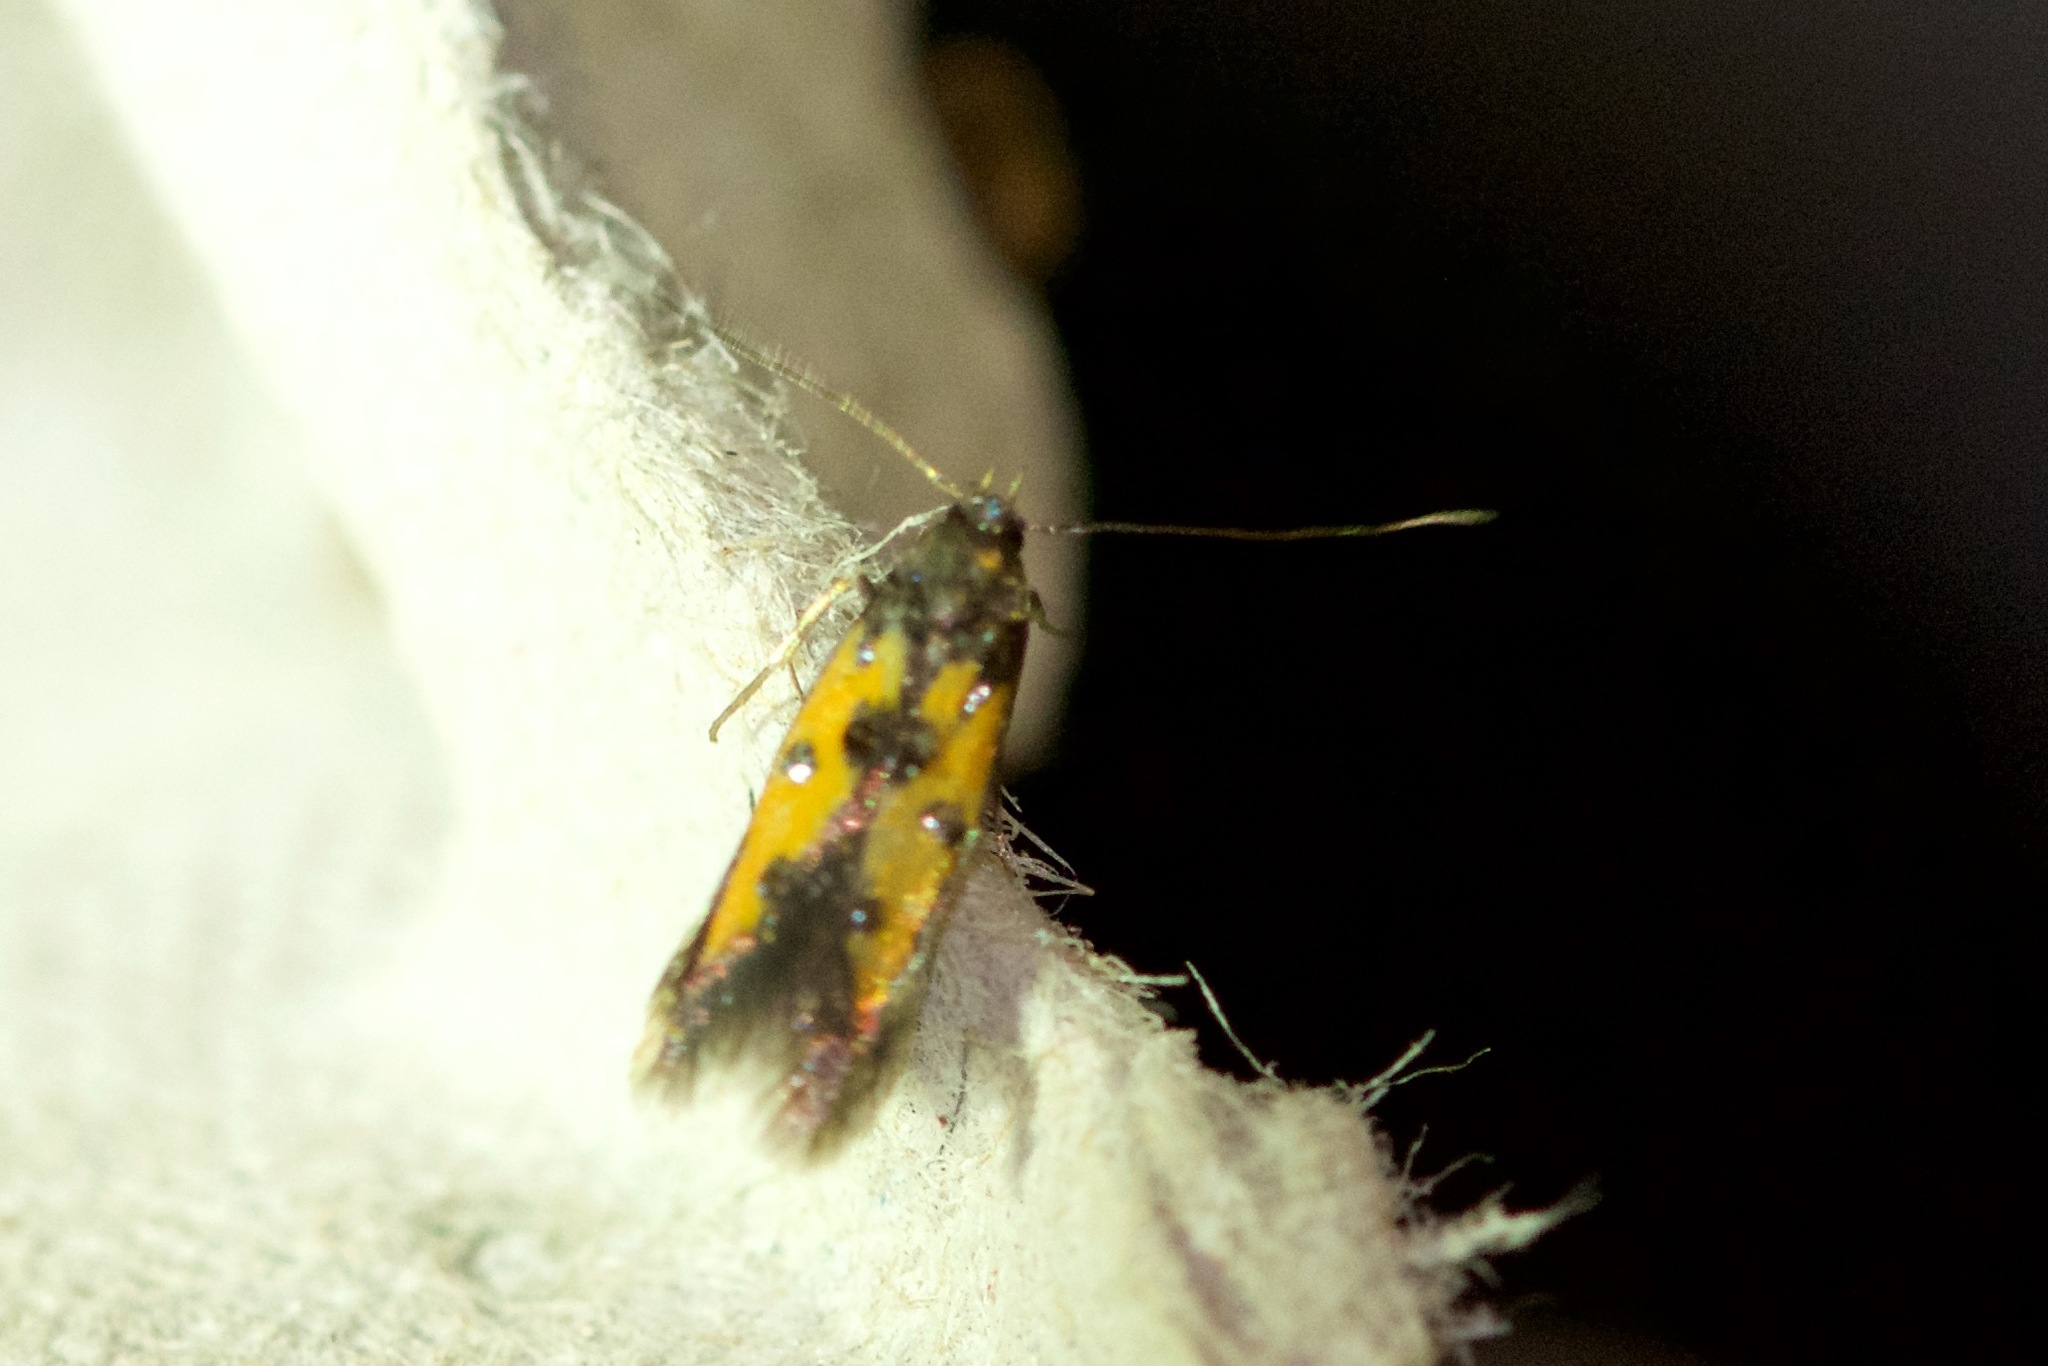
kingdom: Animalia
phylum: Arthropoda
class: Insecta
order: Lepidoptera
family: Elachistidae
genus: Chrysoclista
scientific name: Chrysoclista linneela
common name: Lime cosmet
